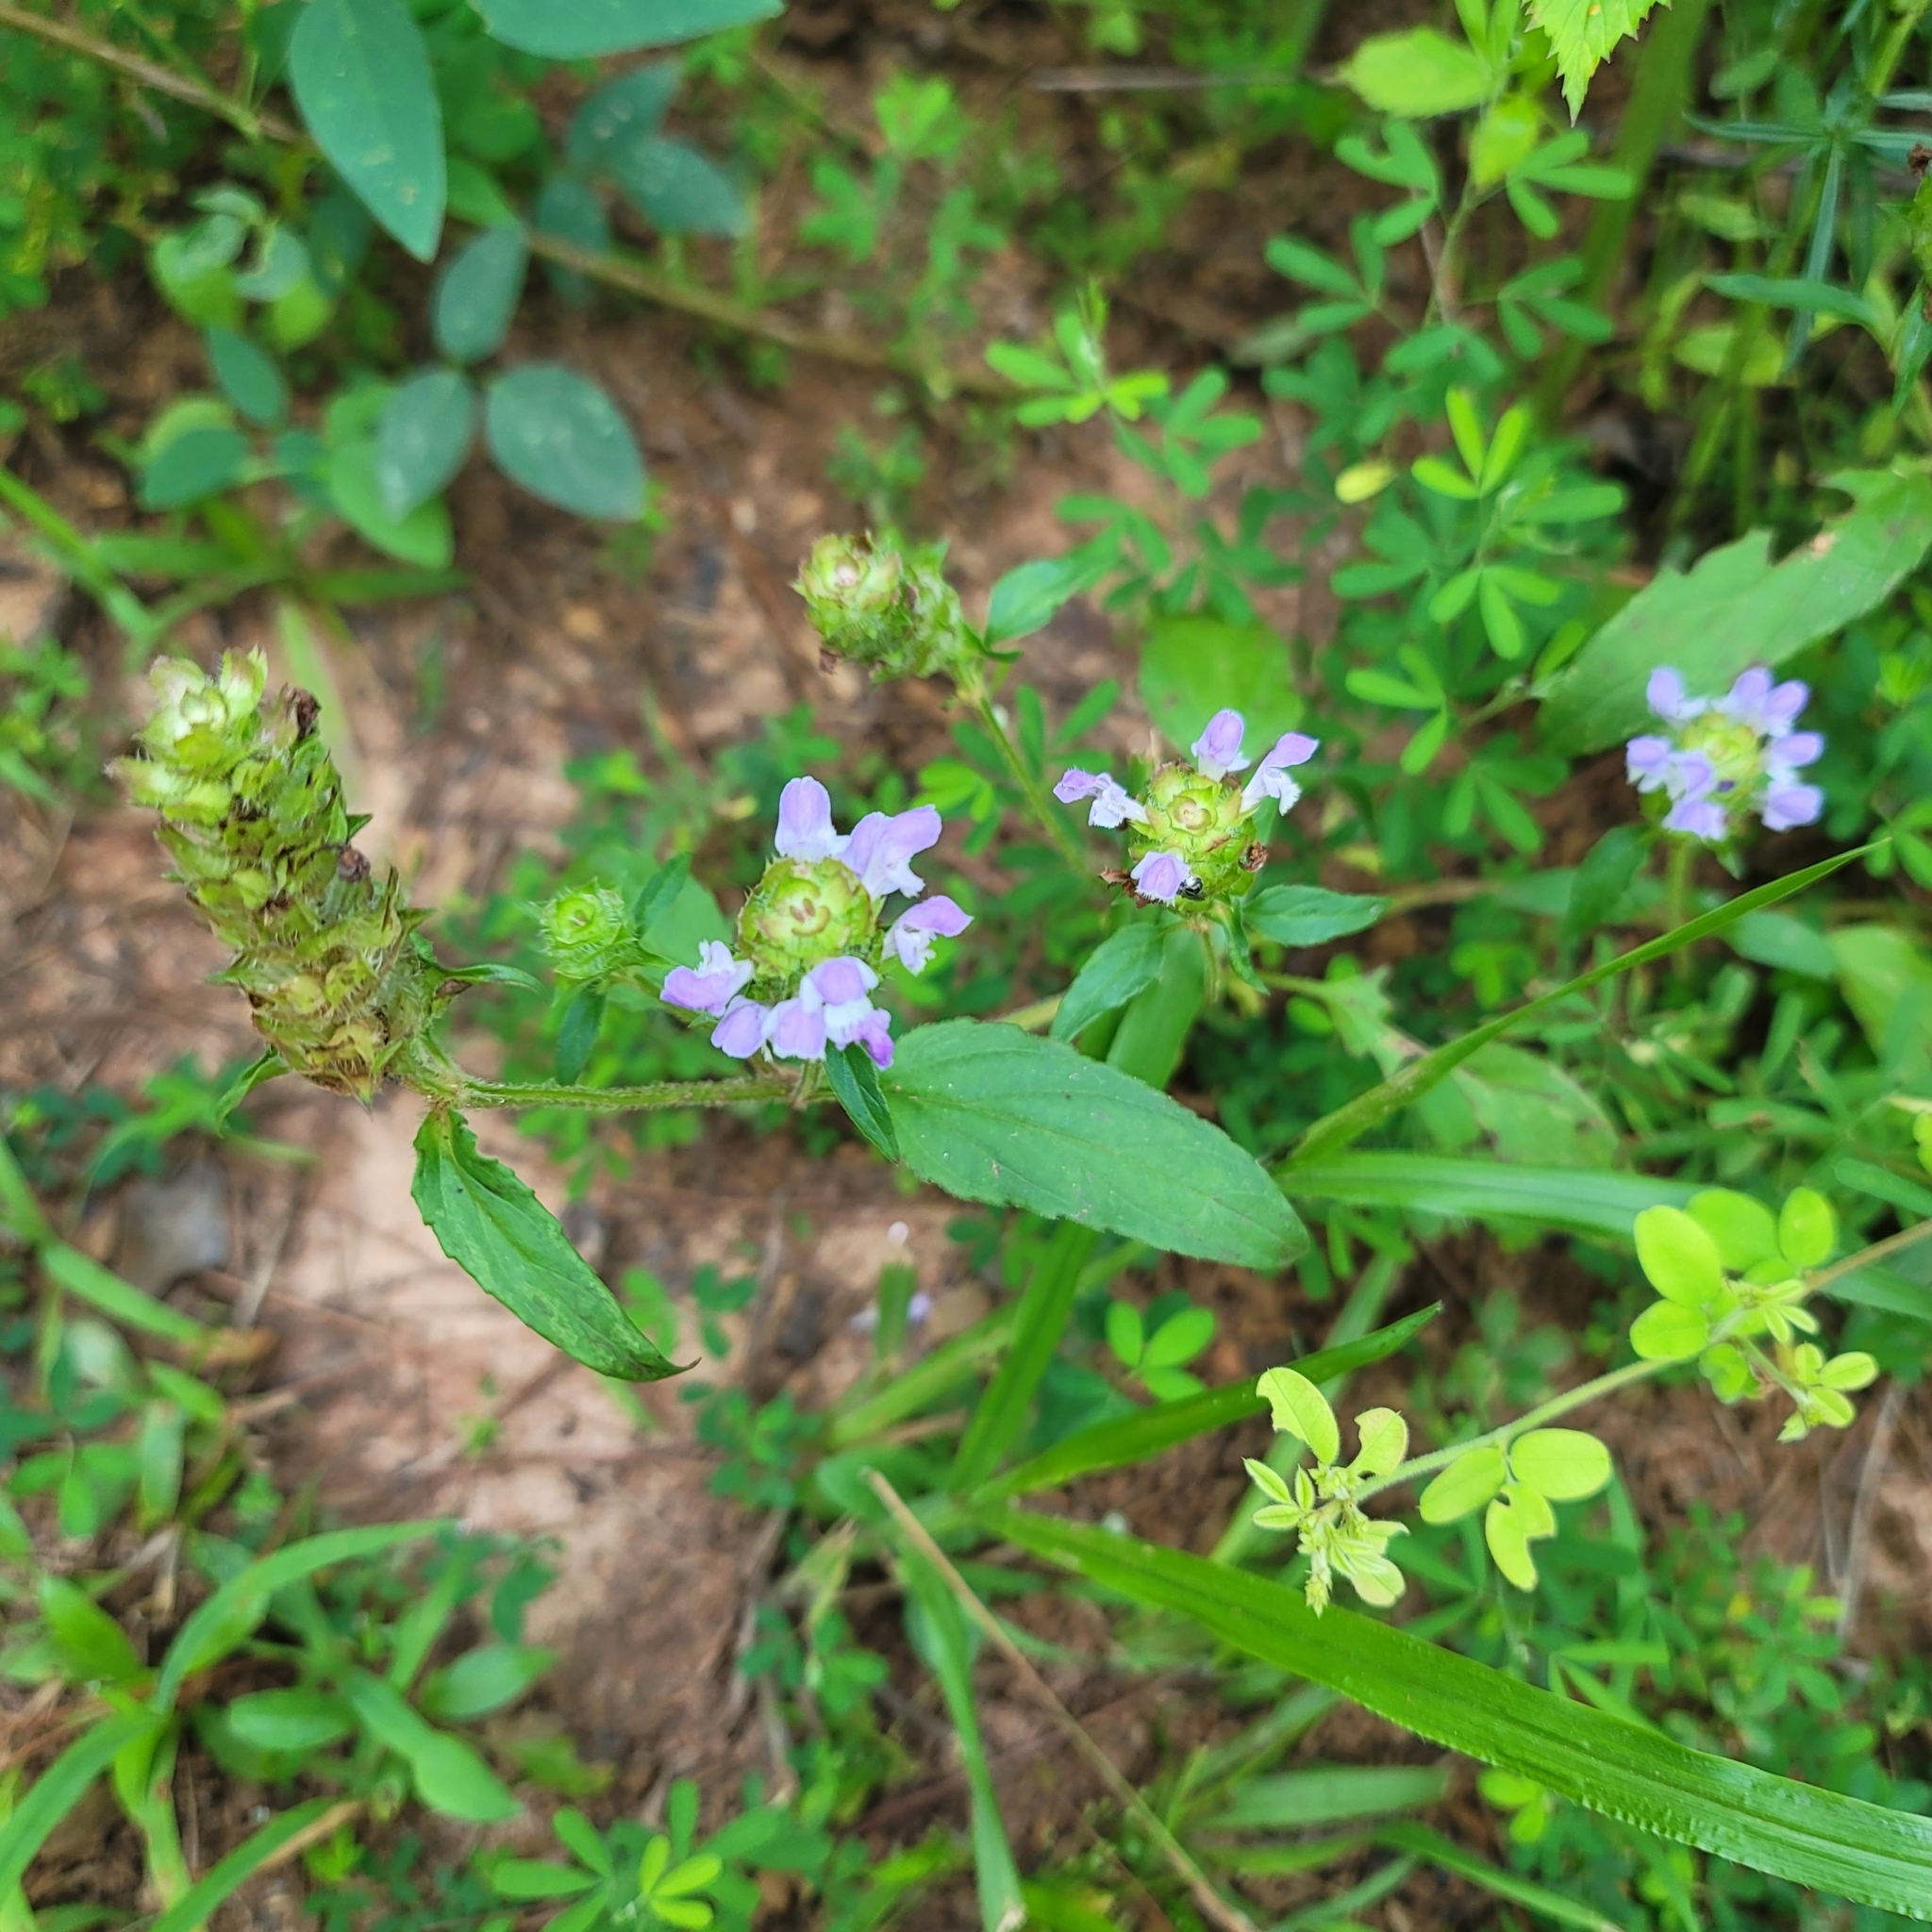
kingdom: Plantae
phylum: Tracheophyta
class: Magnoliopsida
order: Lamiales
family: Lamiaceae
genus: Prunella
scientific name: Prunella vulgaris
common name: Heal-all
